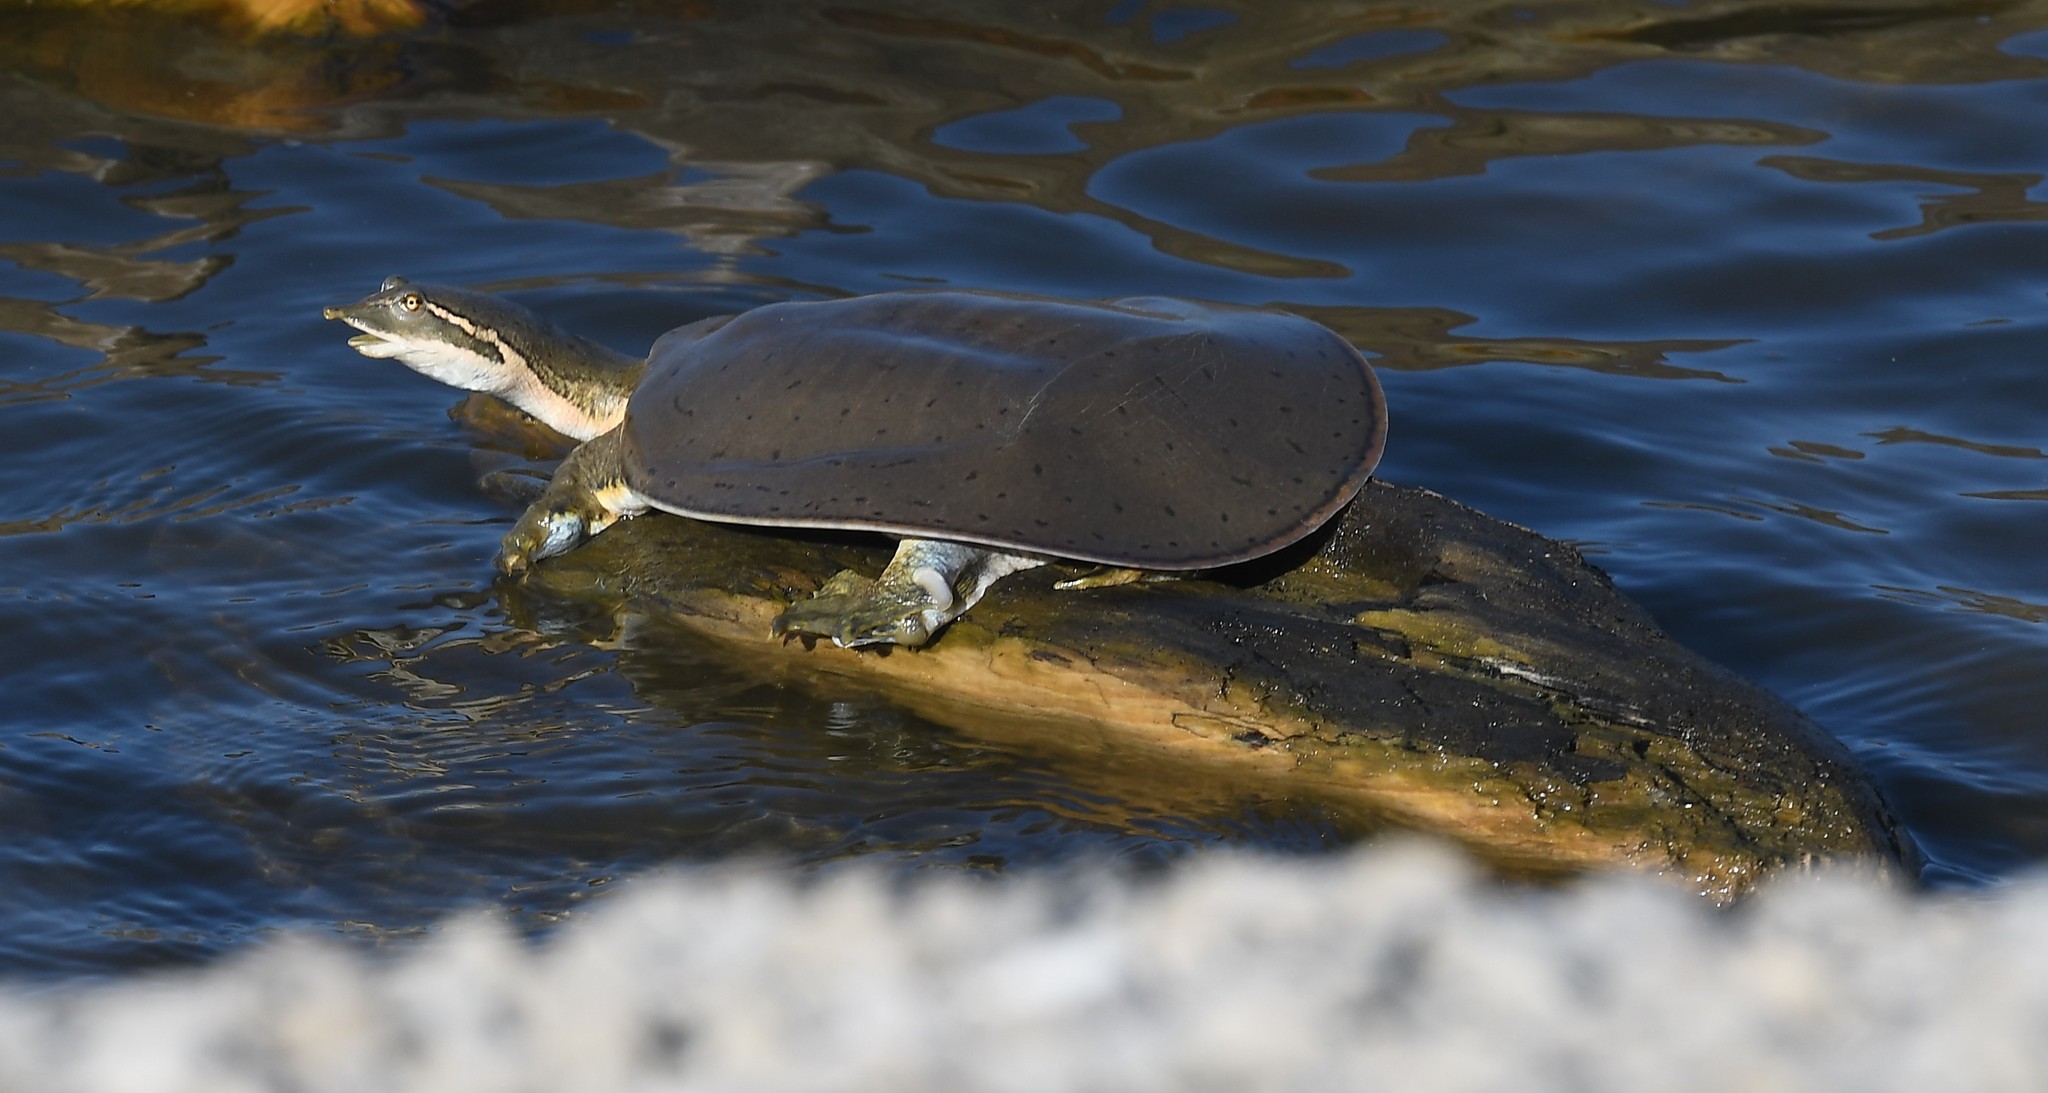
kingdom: Animalia
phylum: Chordata
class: Testudines
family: Trionychidae
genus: Apalone
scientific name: Apalone mutica
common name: Smooth softshell turtle
